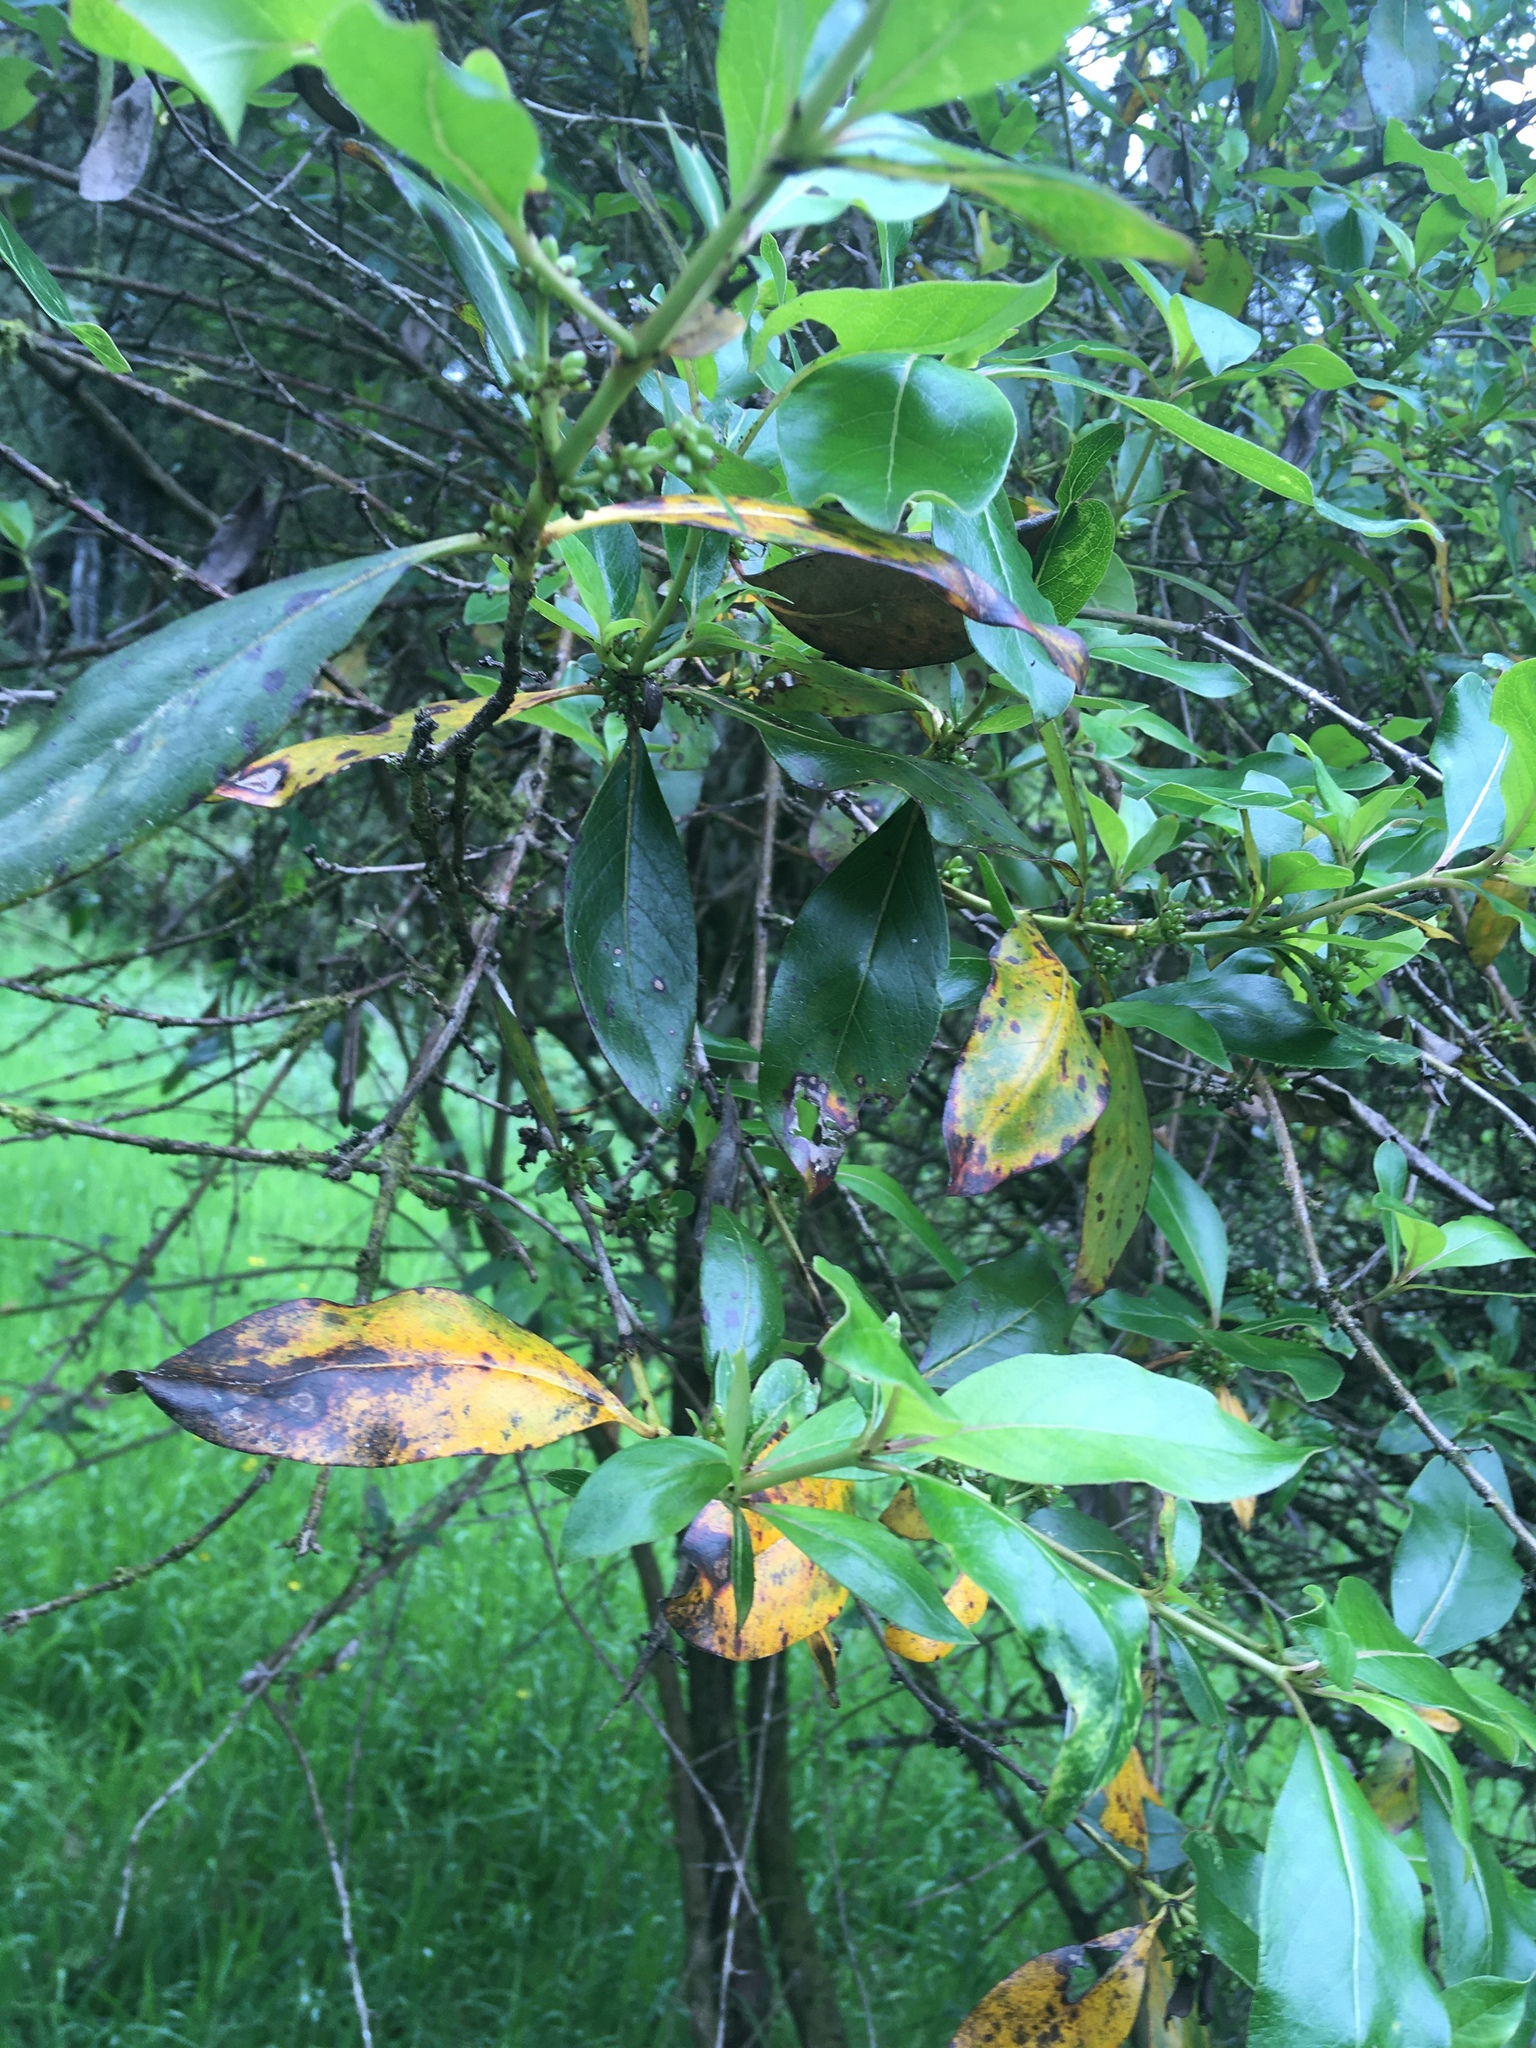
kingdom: Plantae
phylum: Tracheophyta
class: Magnoliopsida
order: Gentianales
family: Rubiaceae
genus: Coprosma
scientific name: Coprosma robusta
